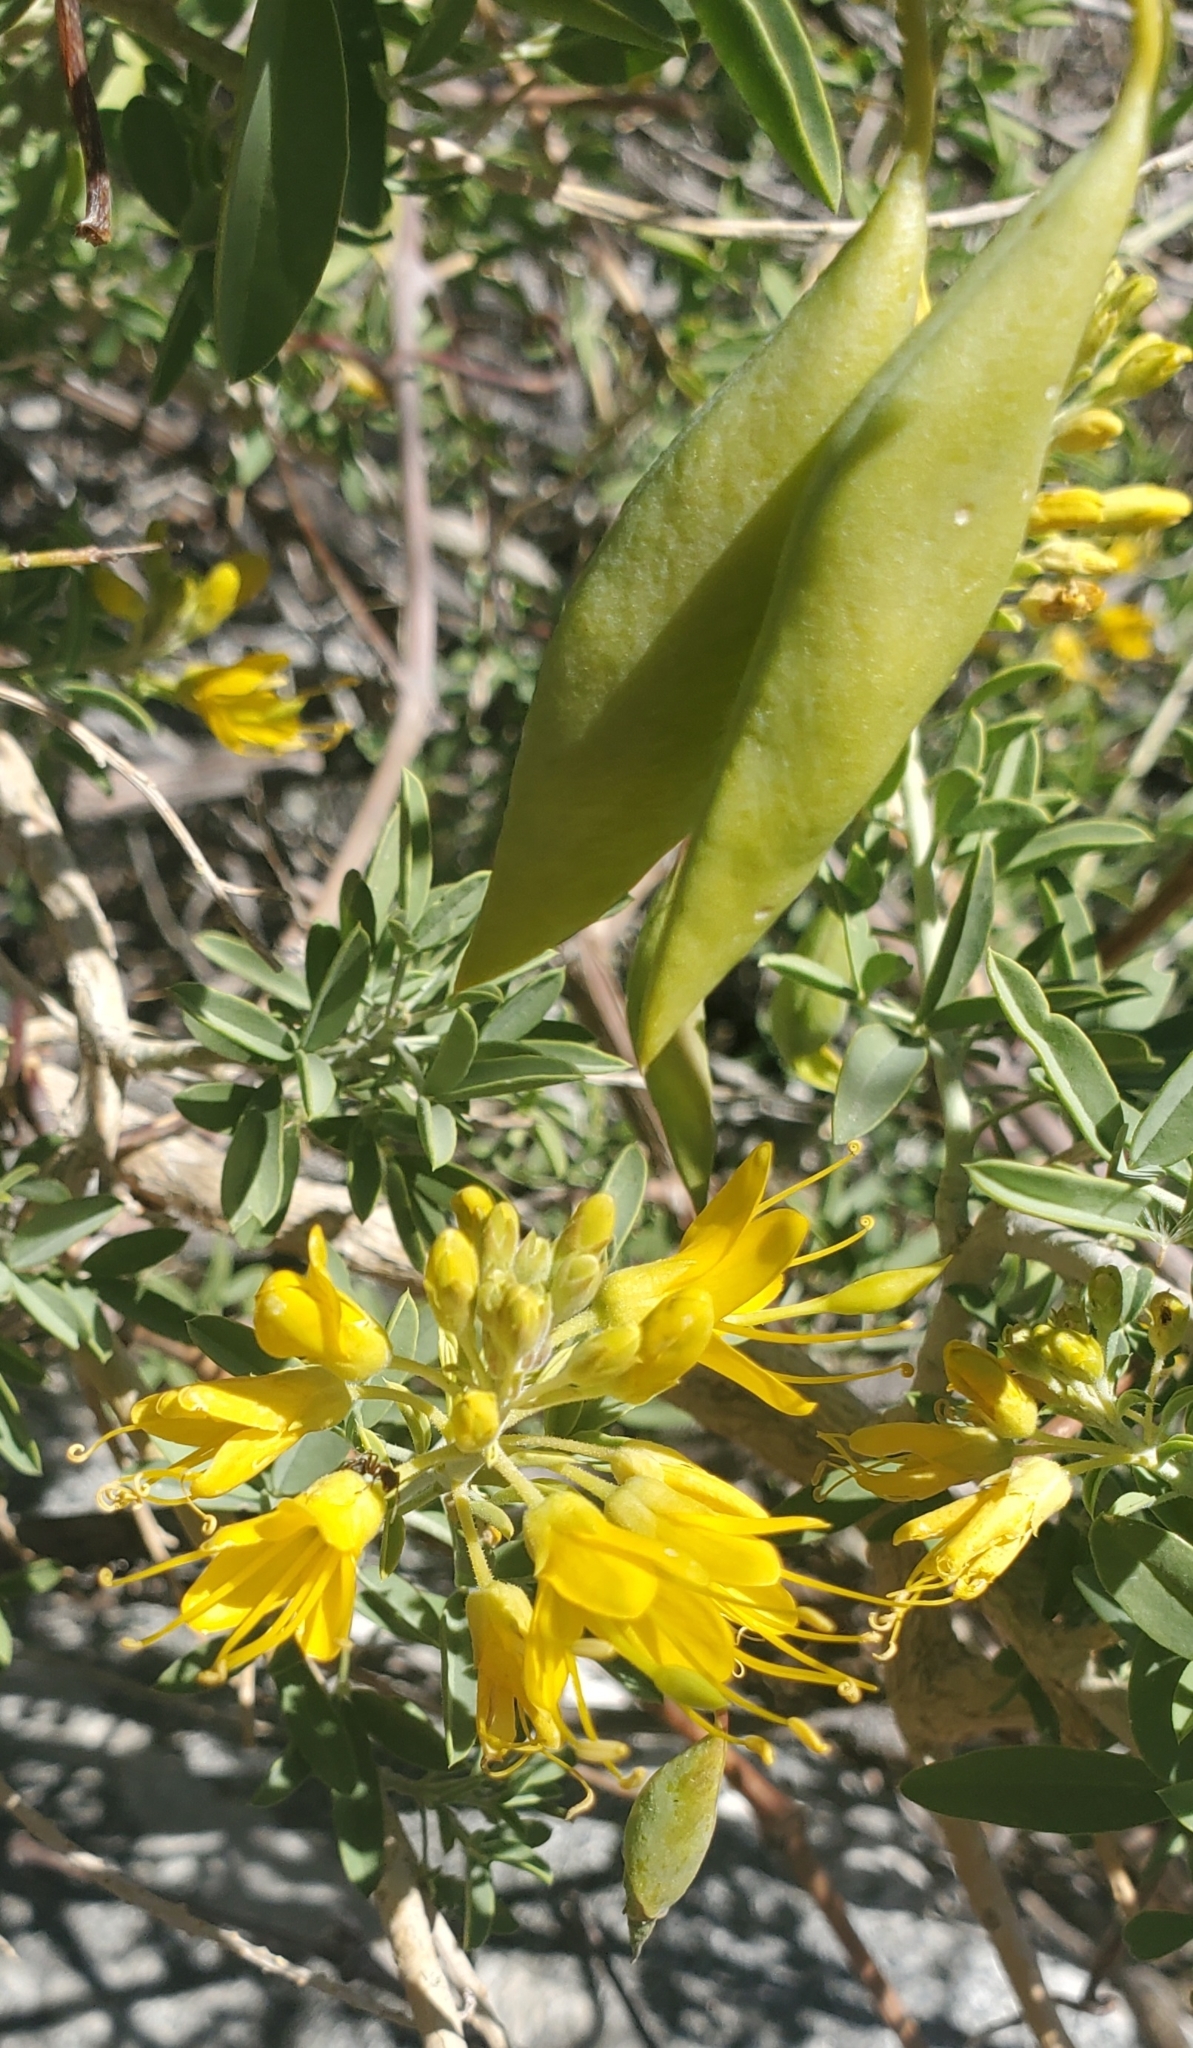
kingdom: Plantae
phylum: Tracheophyta
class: Magnoliopsida
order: Brassicales
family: Cleomaceae
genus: Cleomella
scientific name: Cleomella arborea
